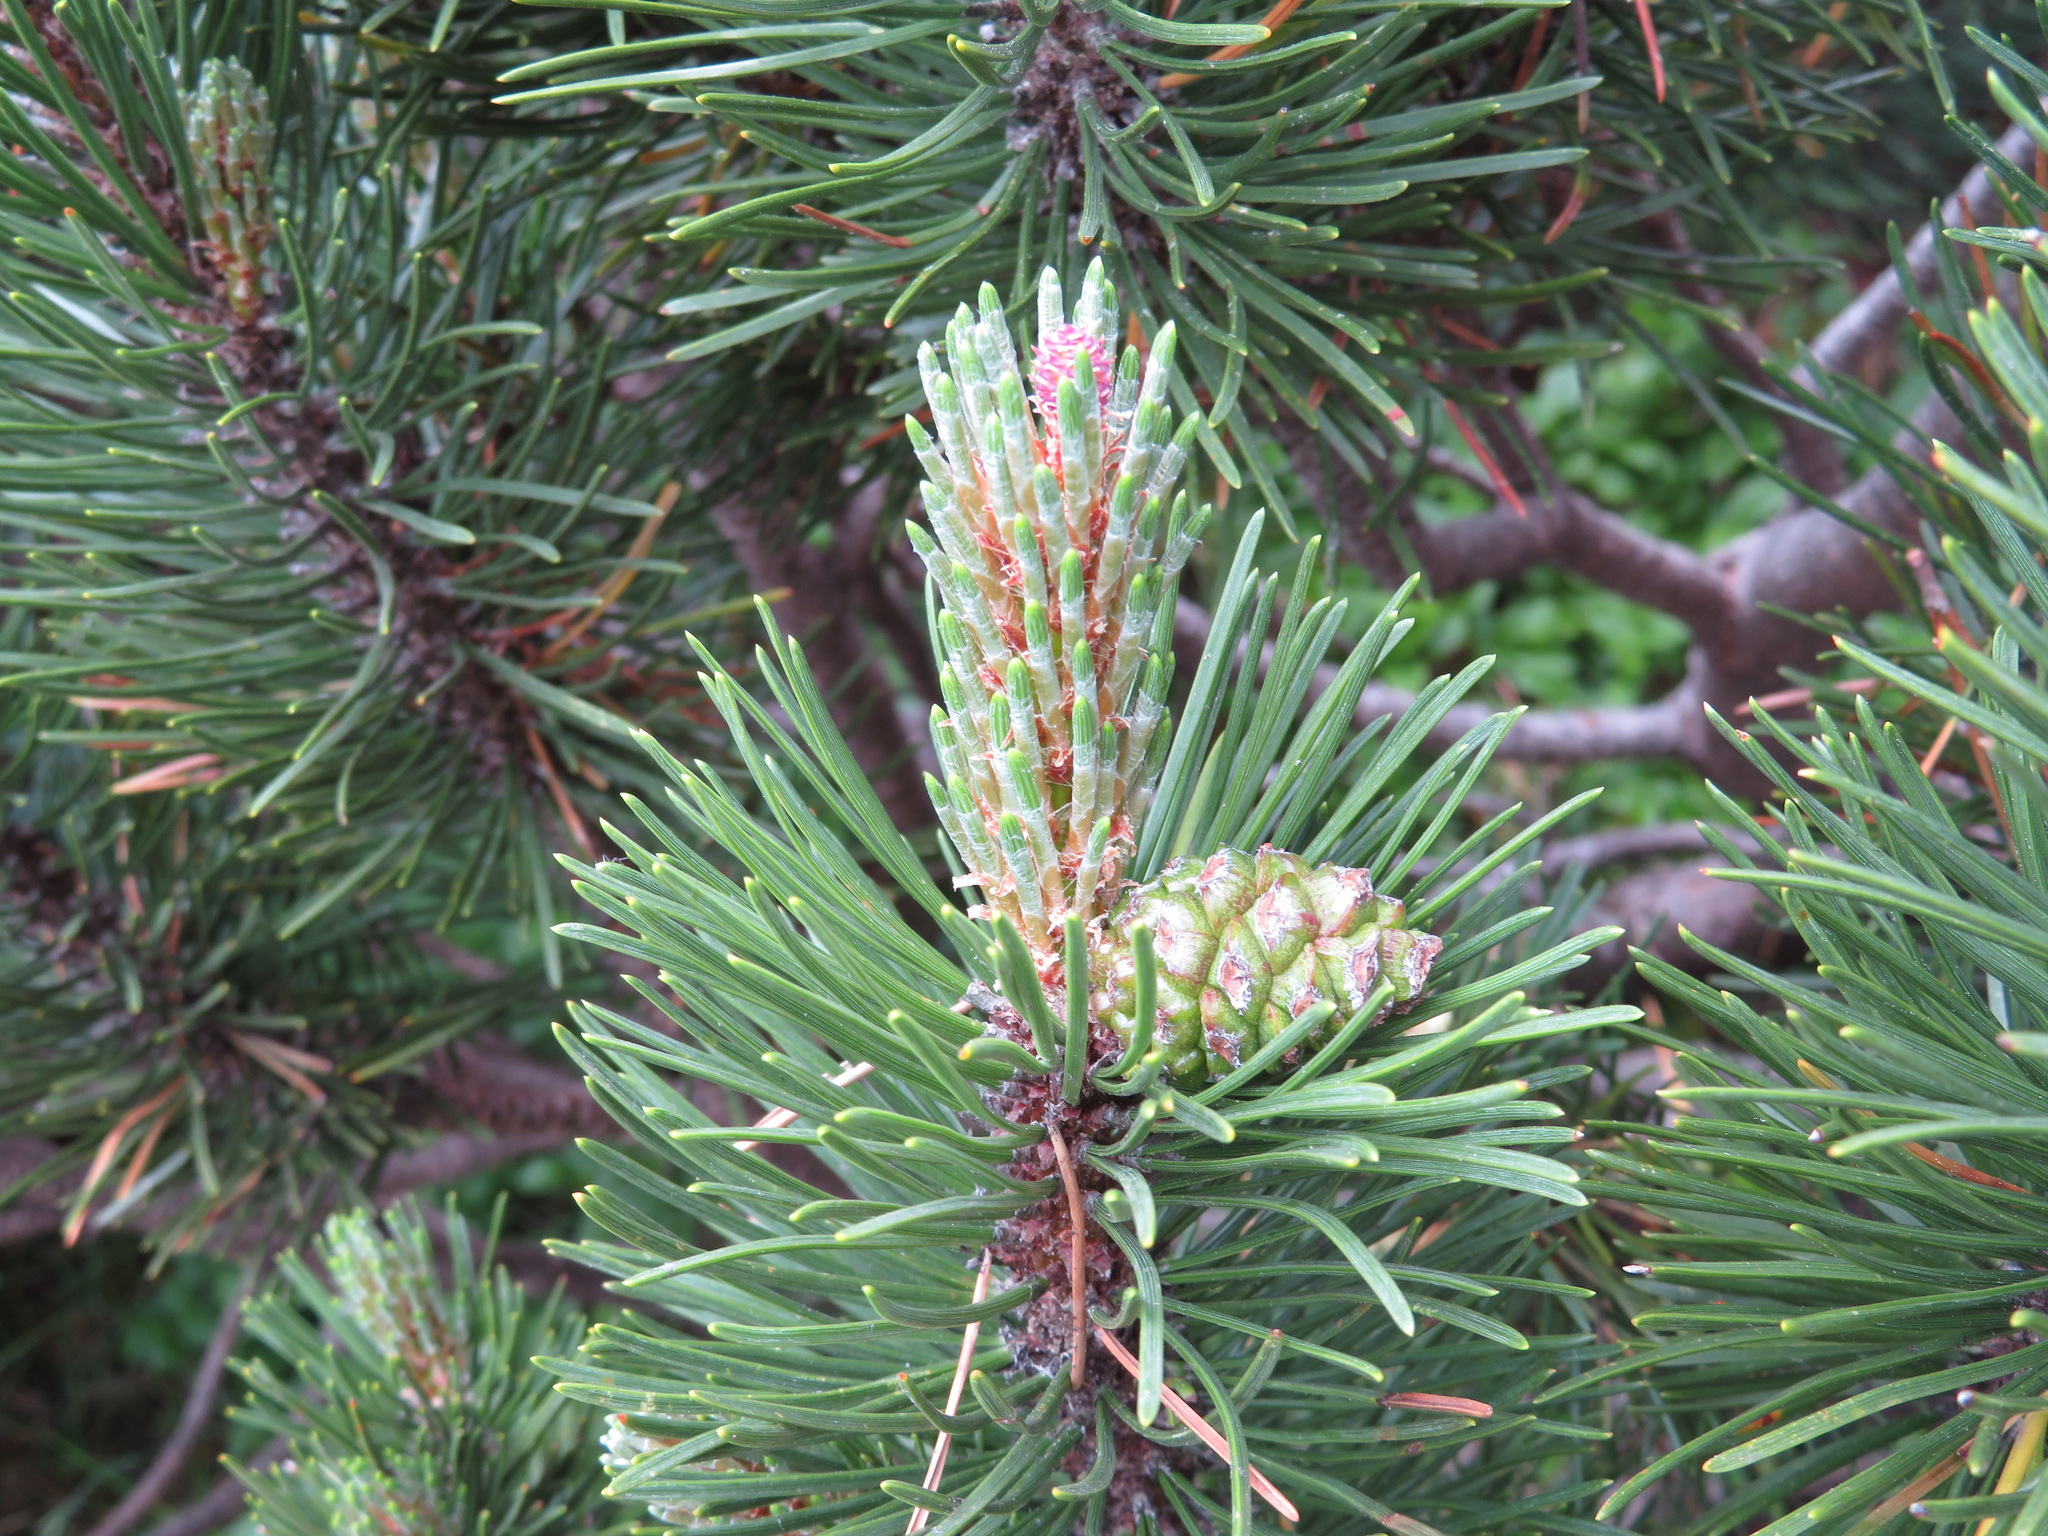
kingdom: Plantae
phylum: Tracheophyta
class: Pinopsida
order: Pinales
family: Pinaceae
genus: Pinus
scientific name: Pinus mugo
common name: Mugo pine
